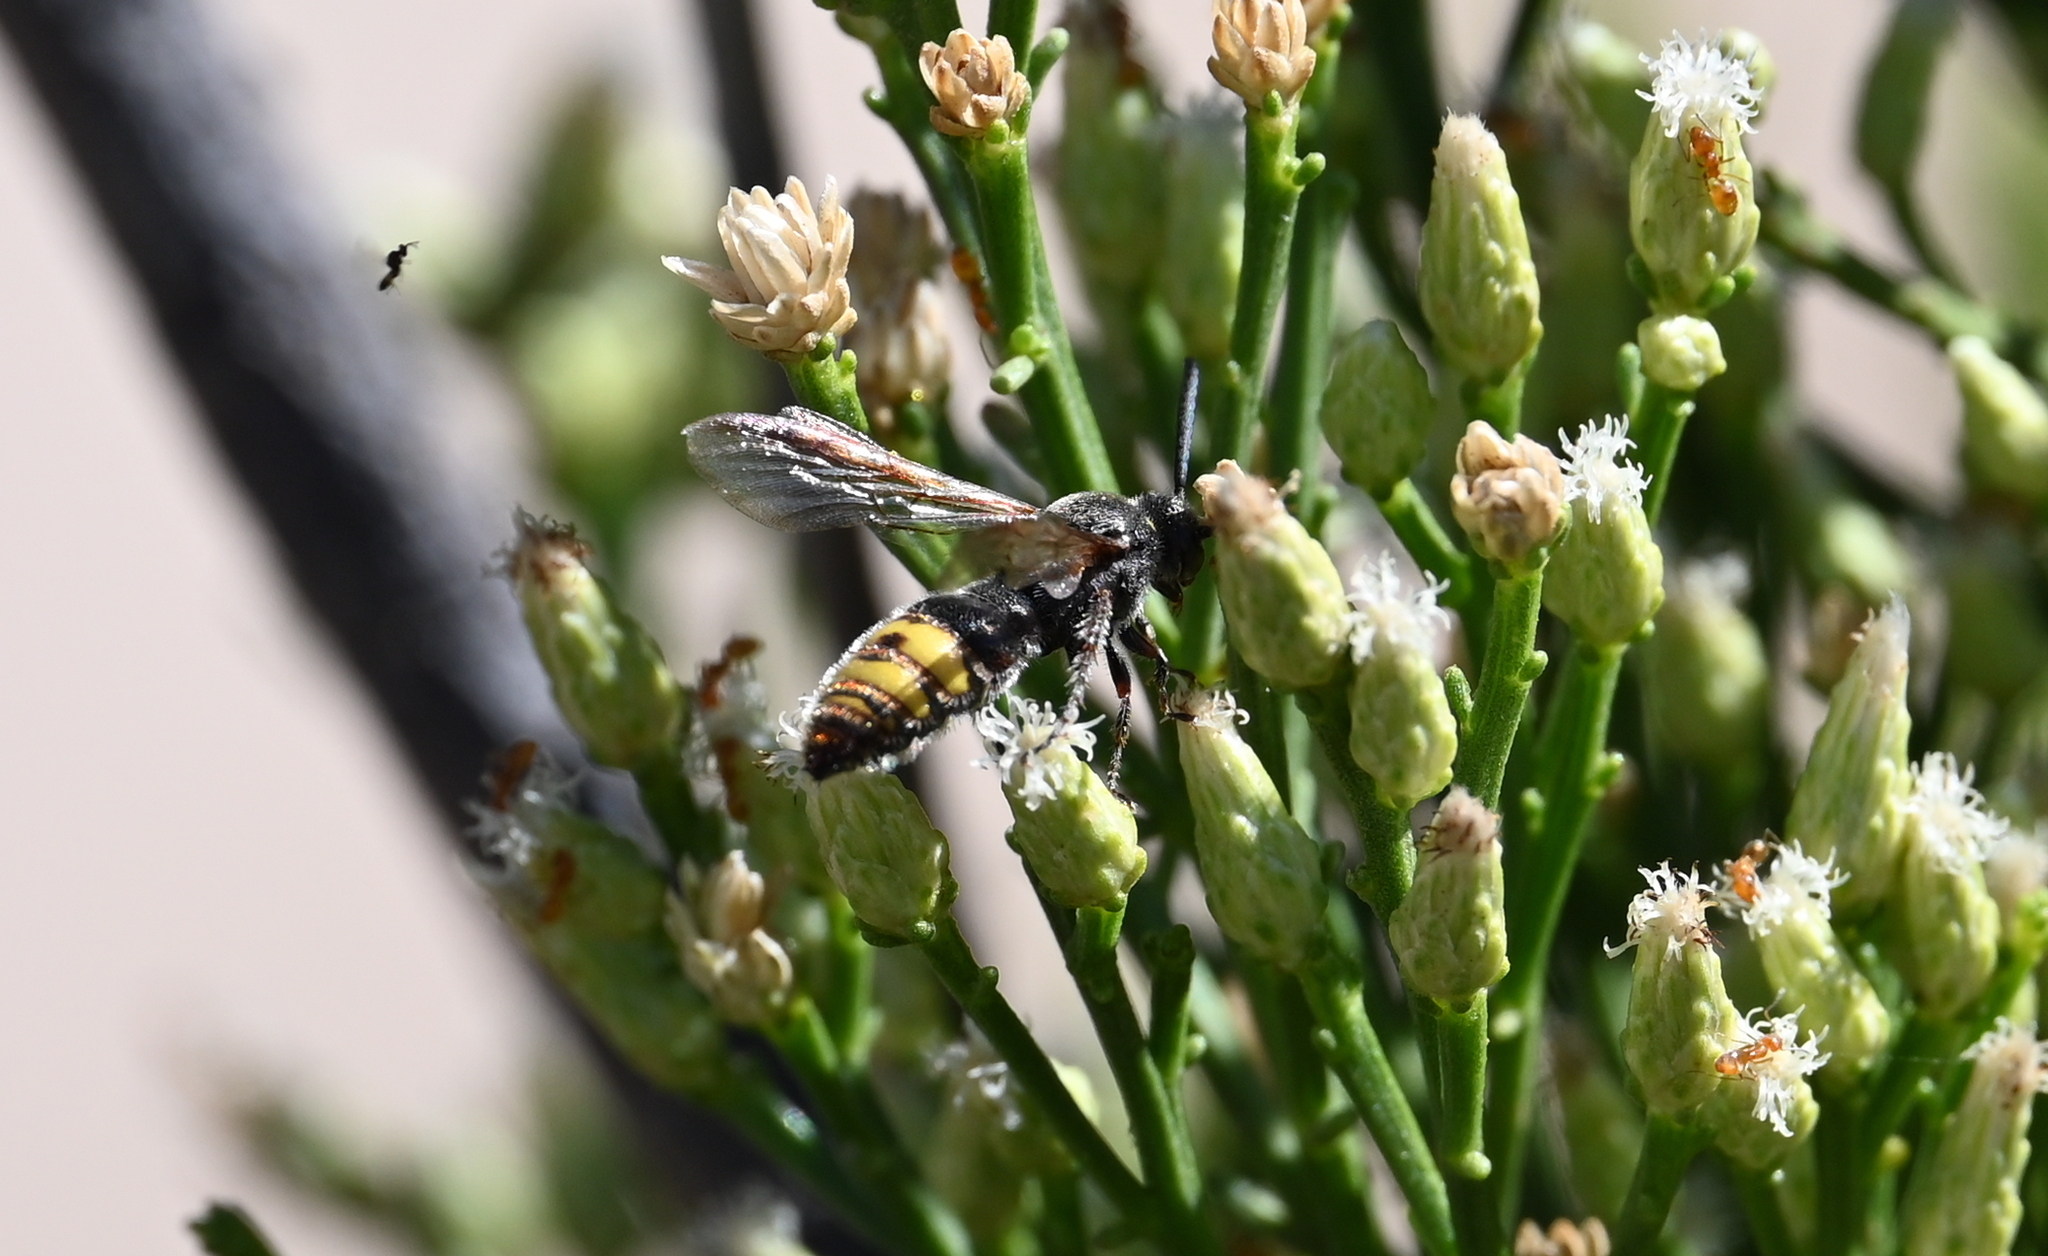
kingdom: Animalia
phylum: Arthropoda
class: Insecta
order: Hymenoptera
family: Scoliidae
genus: Scolia
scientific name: Scolia vintschgaui
